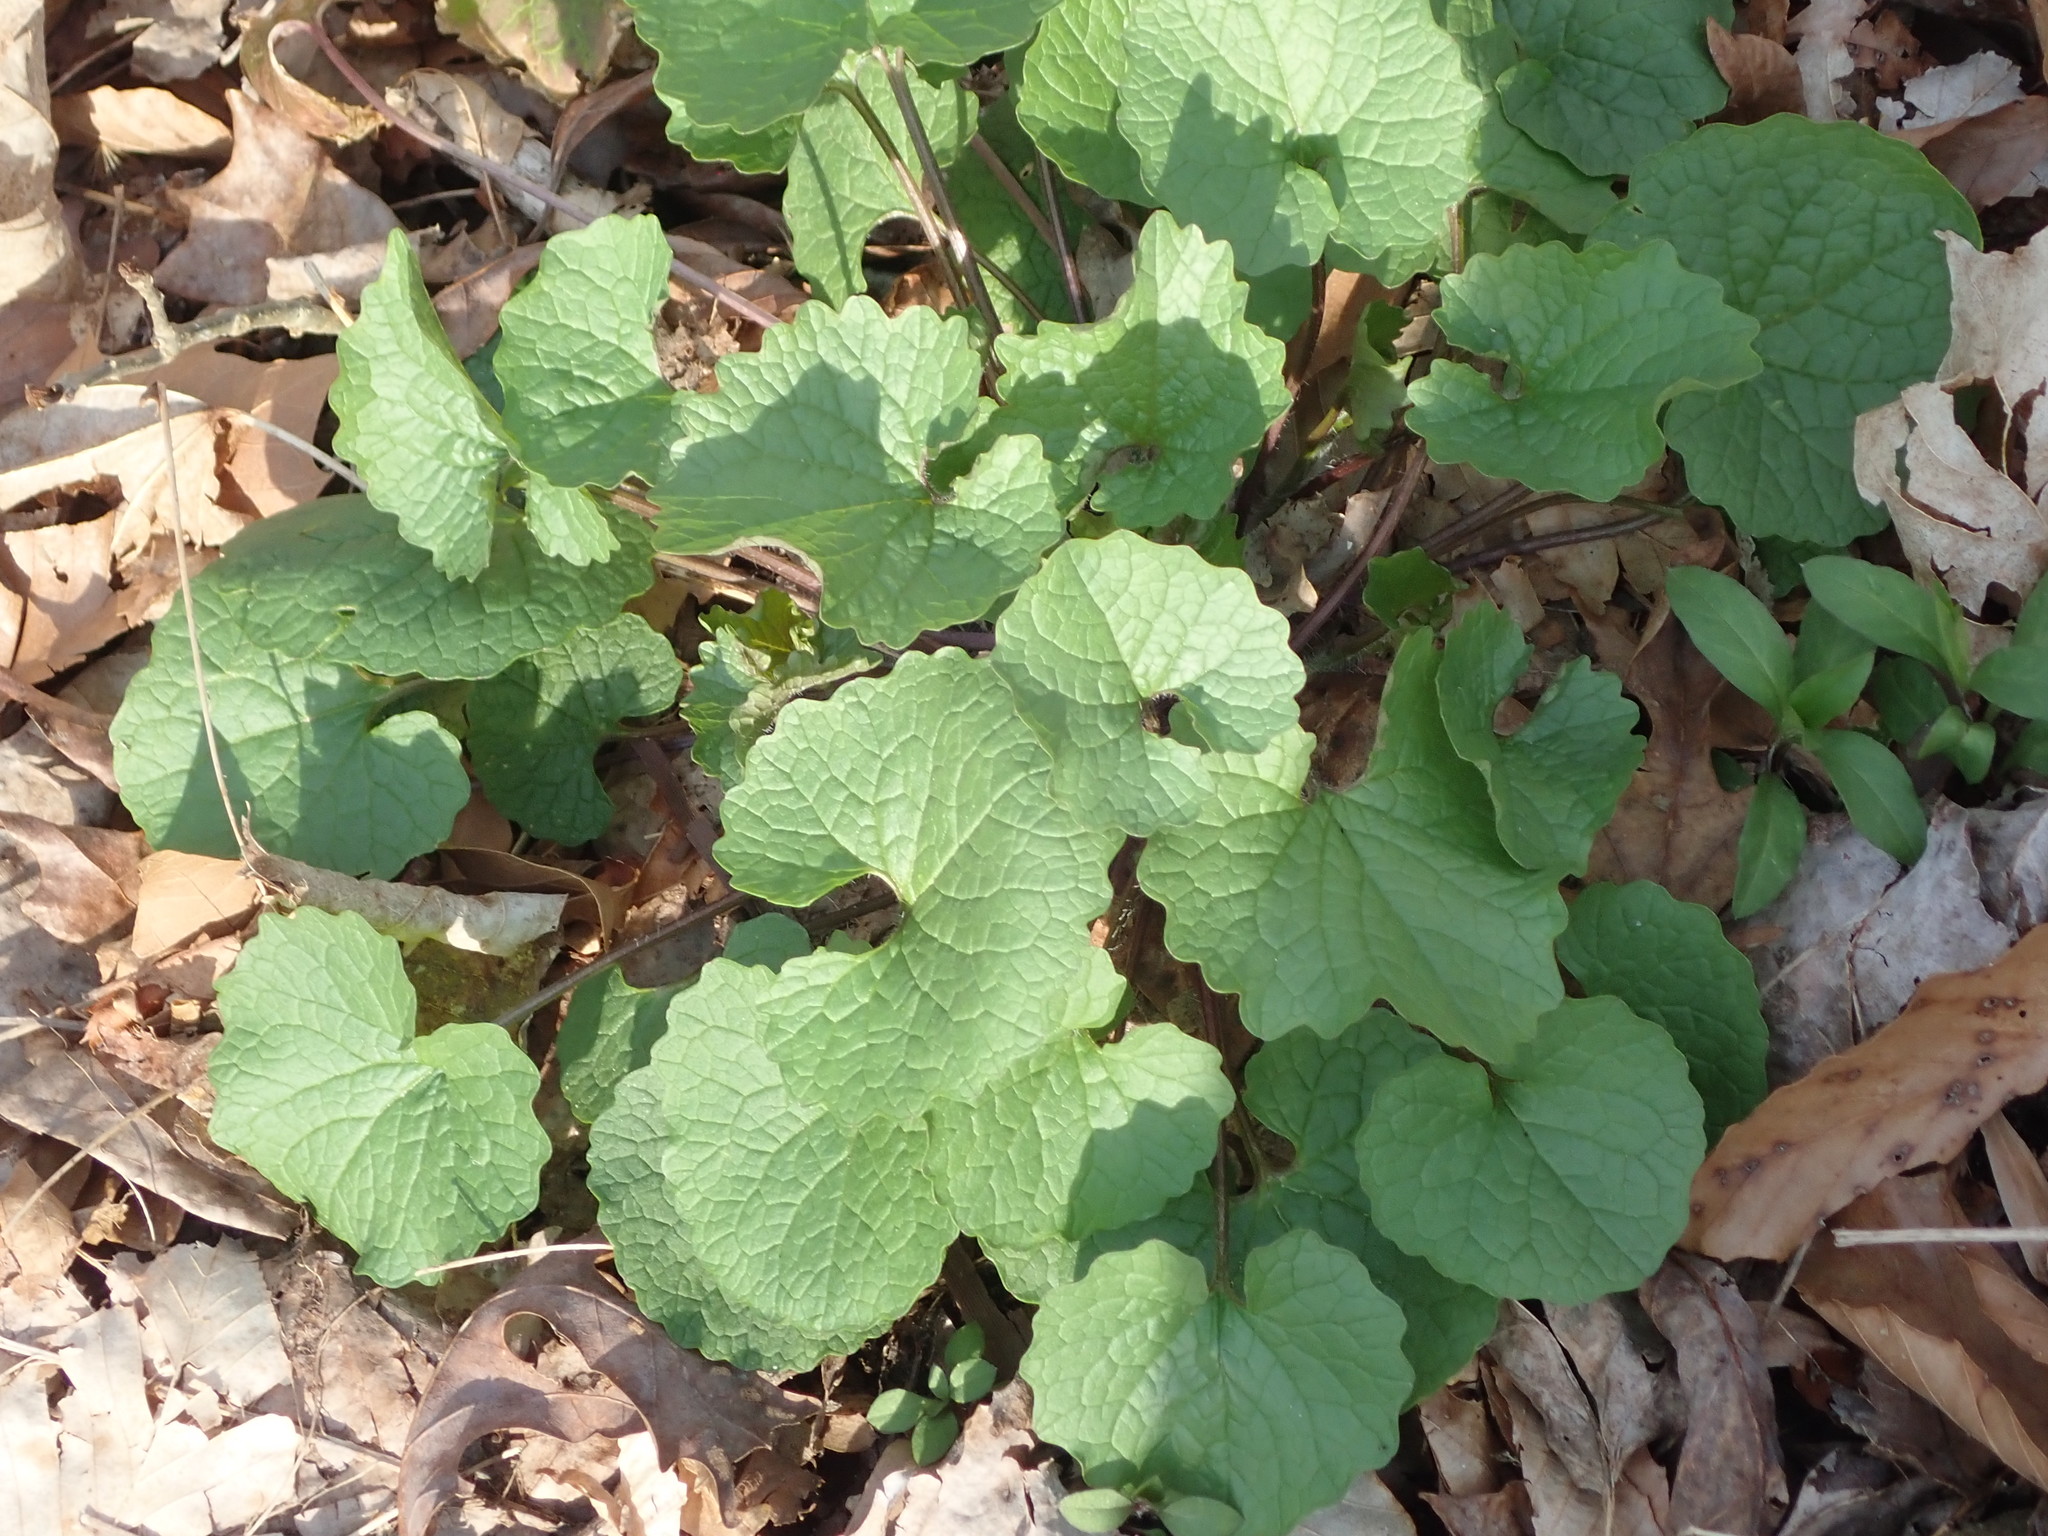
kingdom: Plantae
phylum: Tracheophyta
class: Magnoliopsida
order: Brassicales
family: Brassicaceae
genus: Alliaria
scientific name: Alliaria petiolata
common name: Garlic mustard
